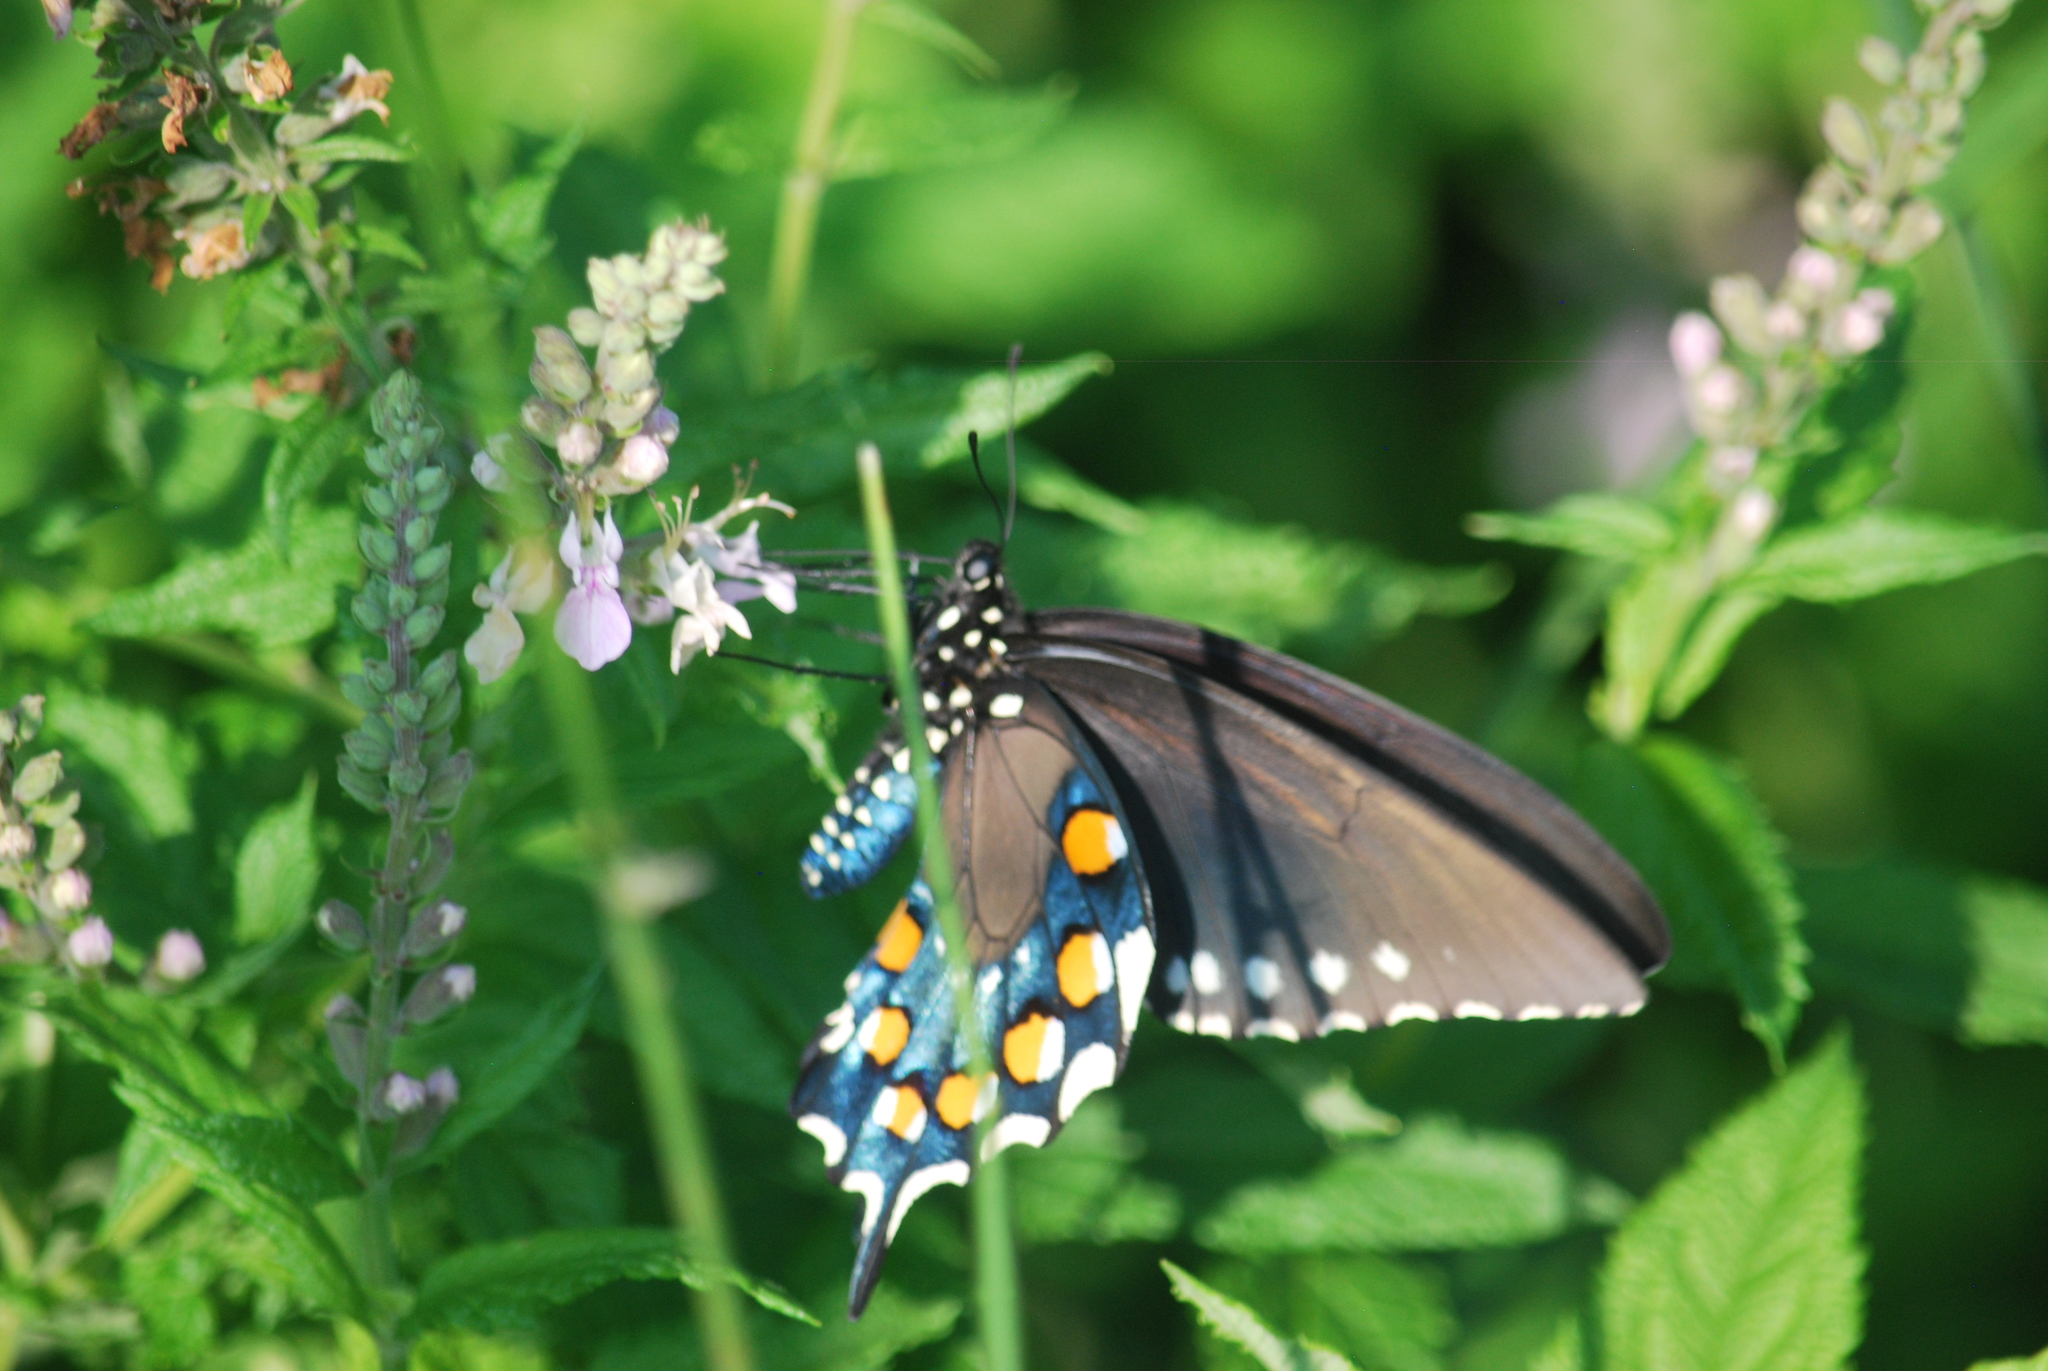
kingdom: Animalia
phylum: Arthropoda
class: Insecta
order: Lepidoptera
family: Papilionidae
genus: Battus
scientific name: Battus philenor
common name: Pipevine swallowtail
